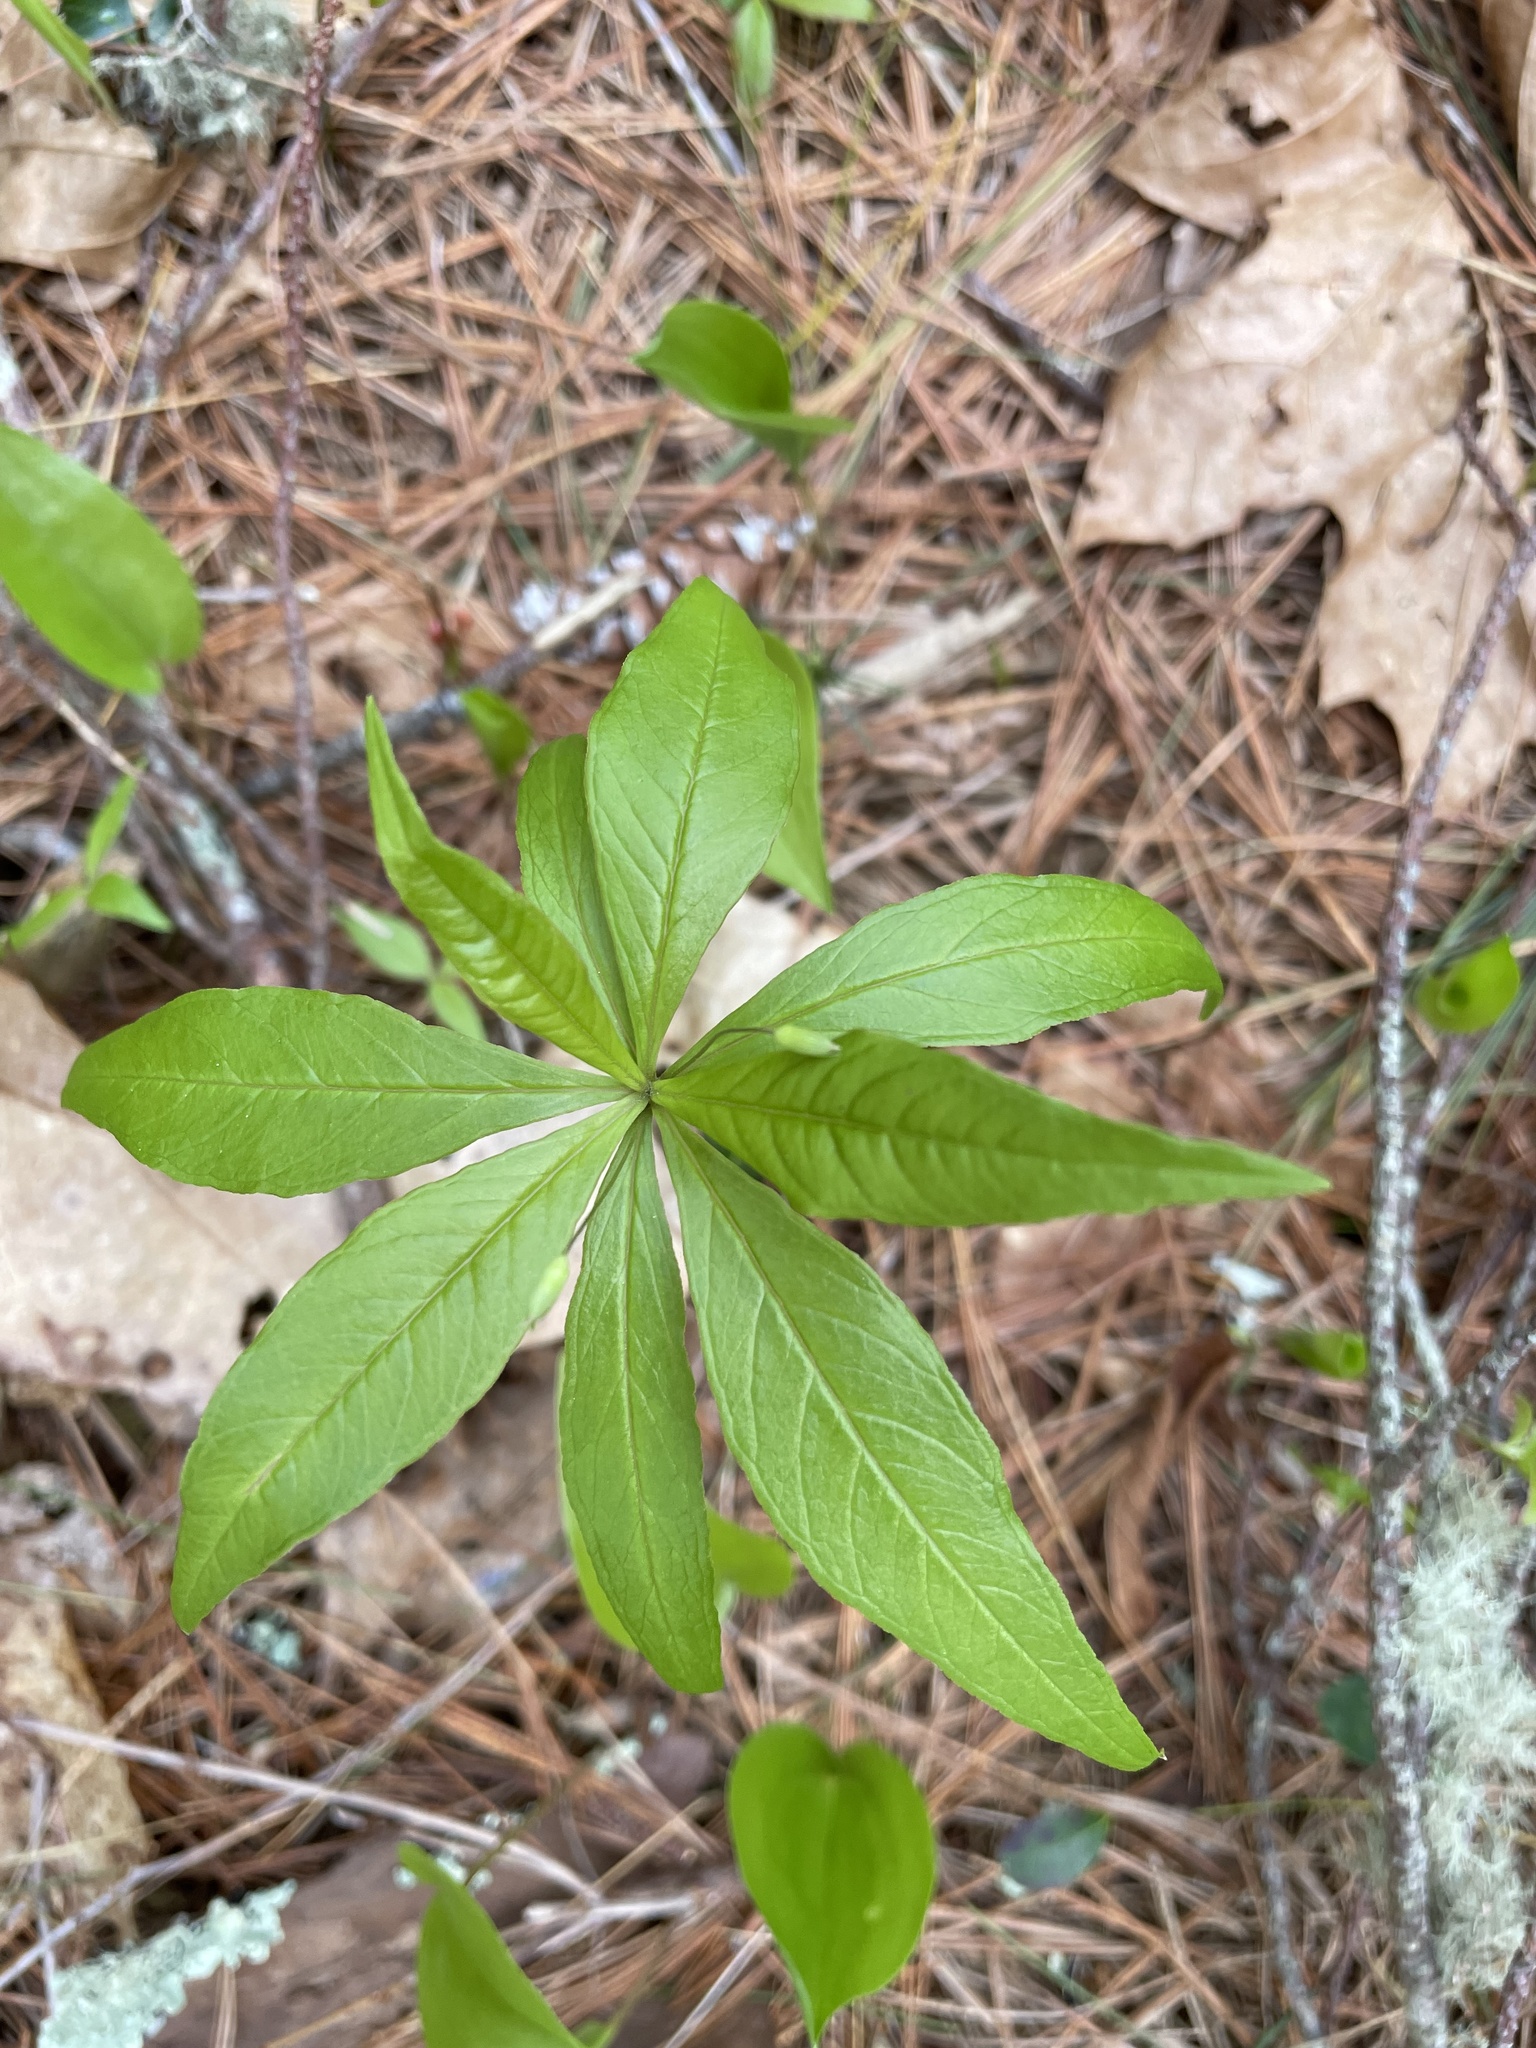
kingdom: Plantae
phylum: Tracheophyta
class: Magnoliopsida
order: Ericales
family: Primulaceae
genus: Lysimachia
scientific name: Lysimachia borealis
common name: American starflower
